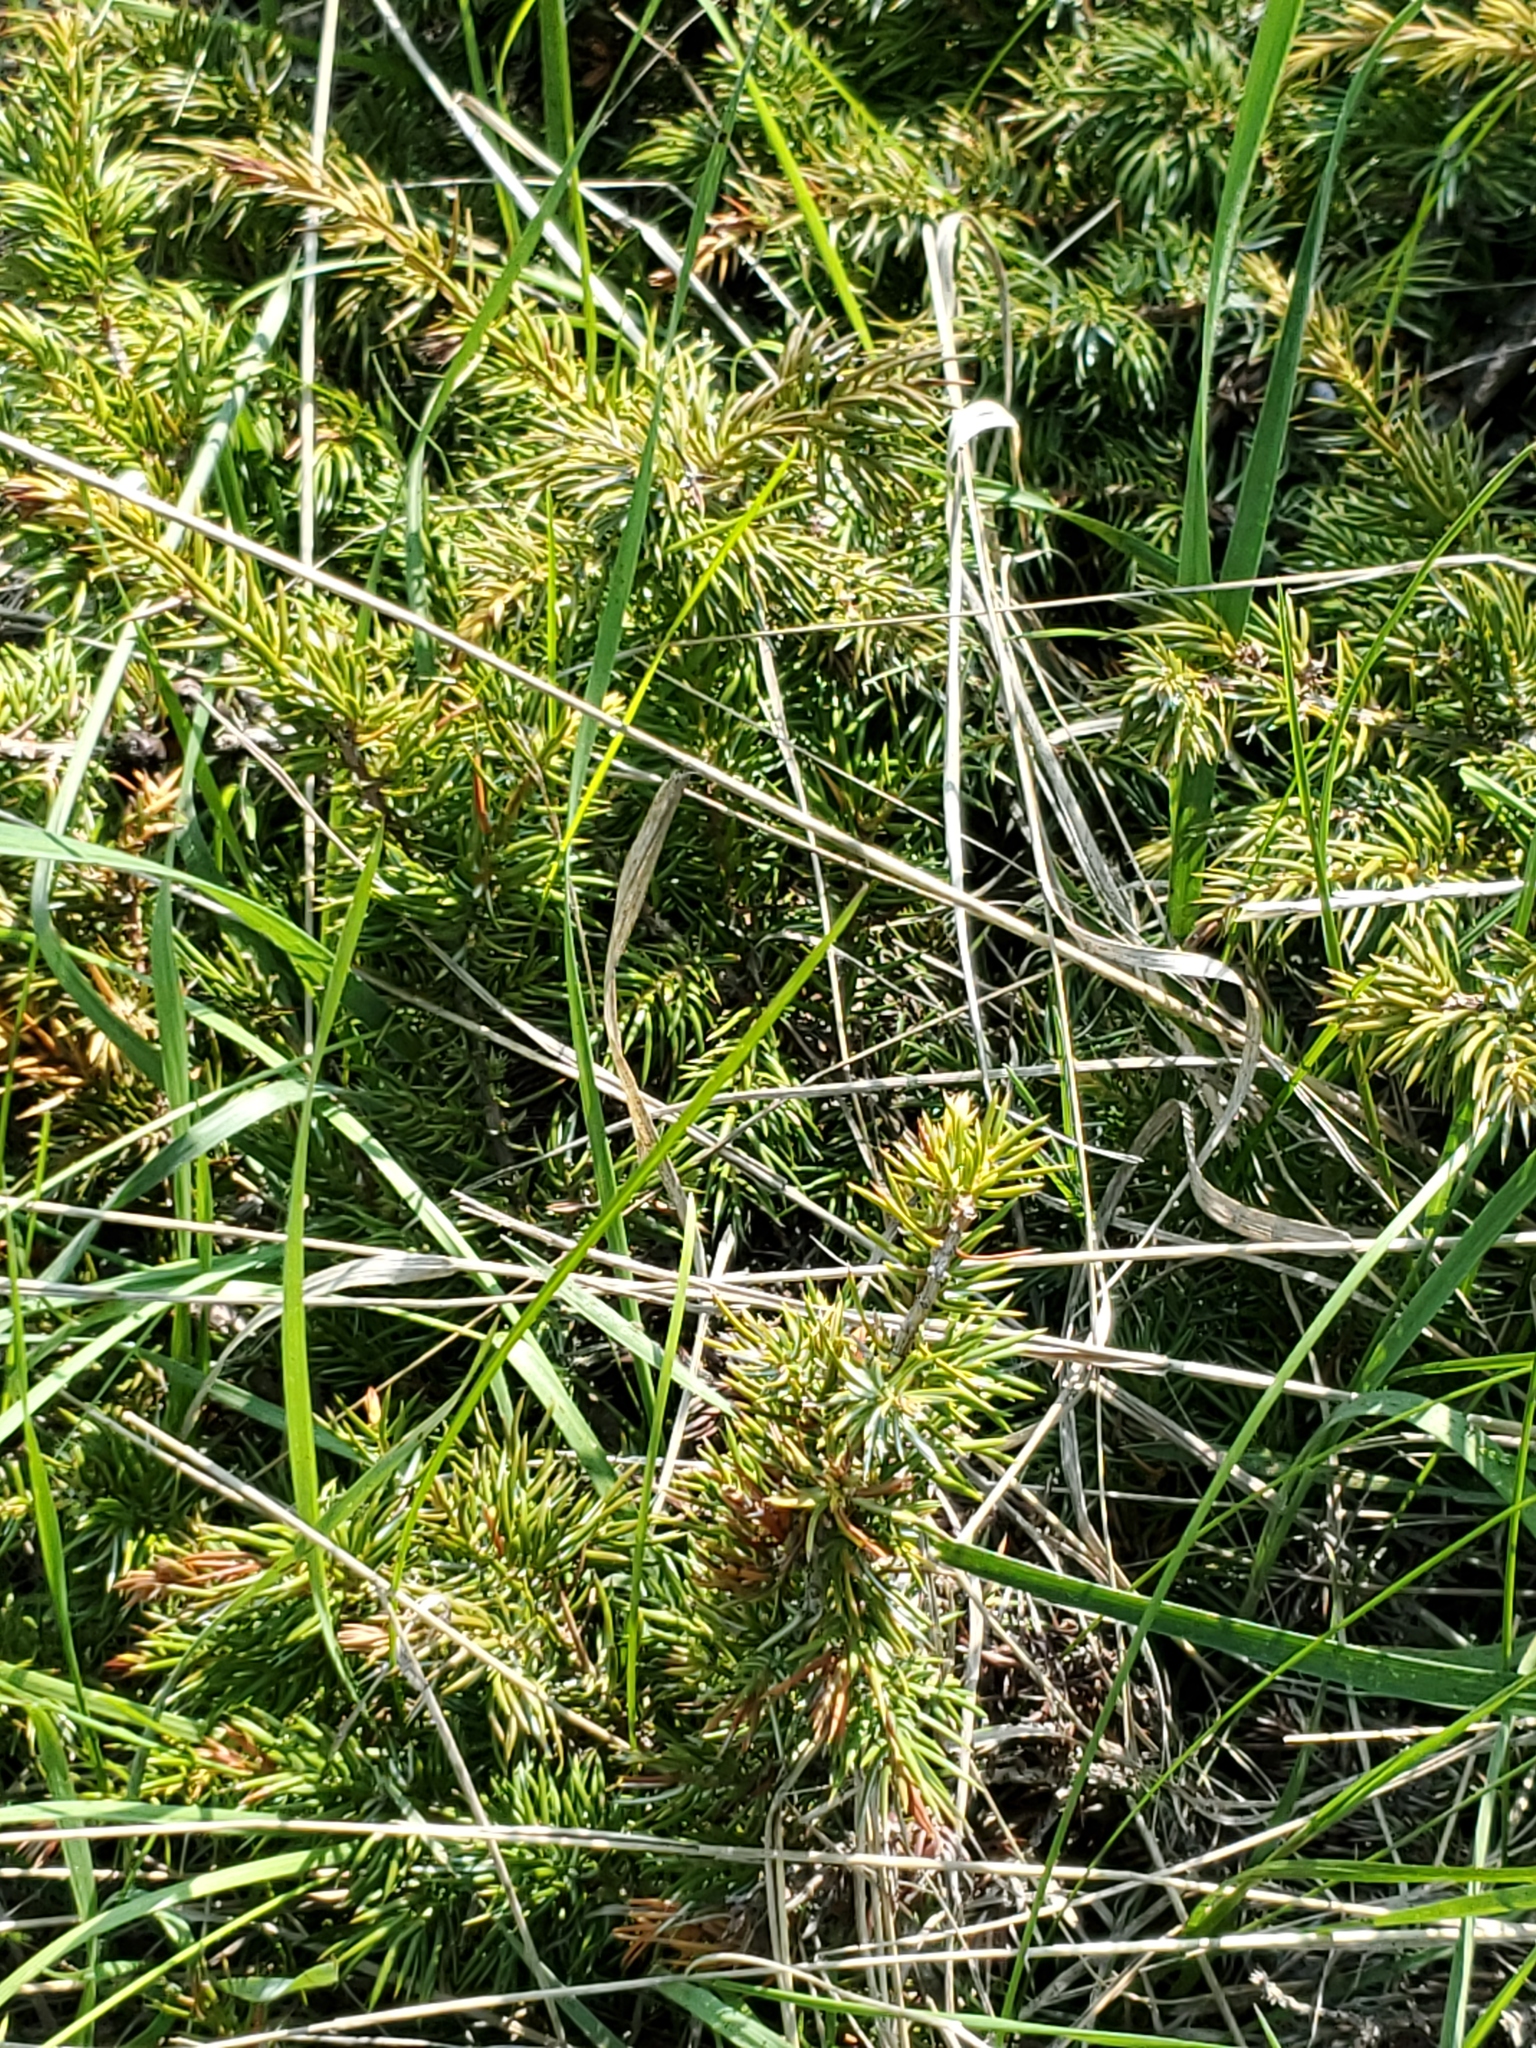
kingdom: Plantae
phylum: Tracheophyta
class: Pinopsida
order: Pinales
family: Cupressaceae
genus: Juniperus
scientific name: Juniperus communis
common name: Common juniper
